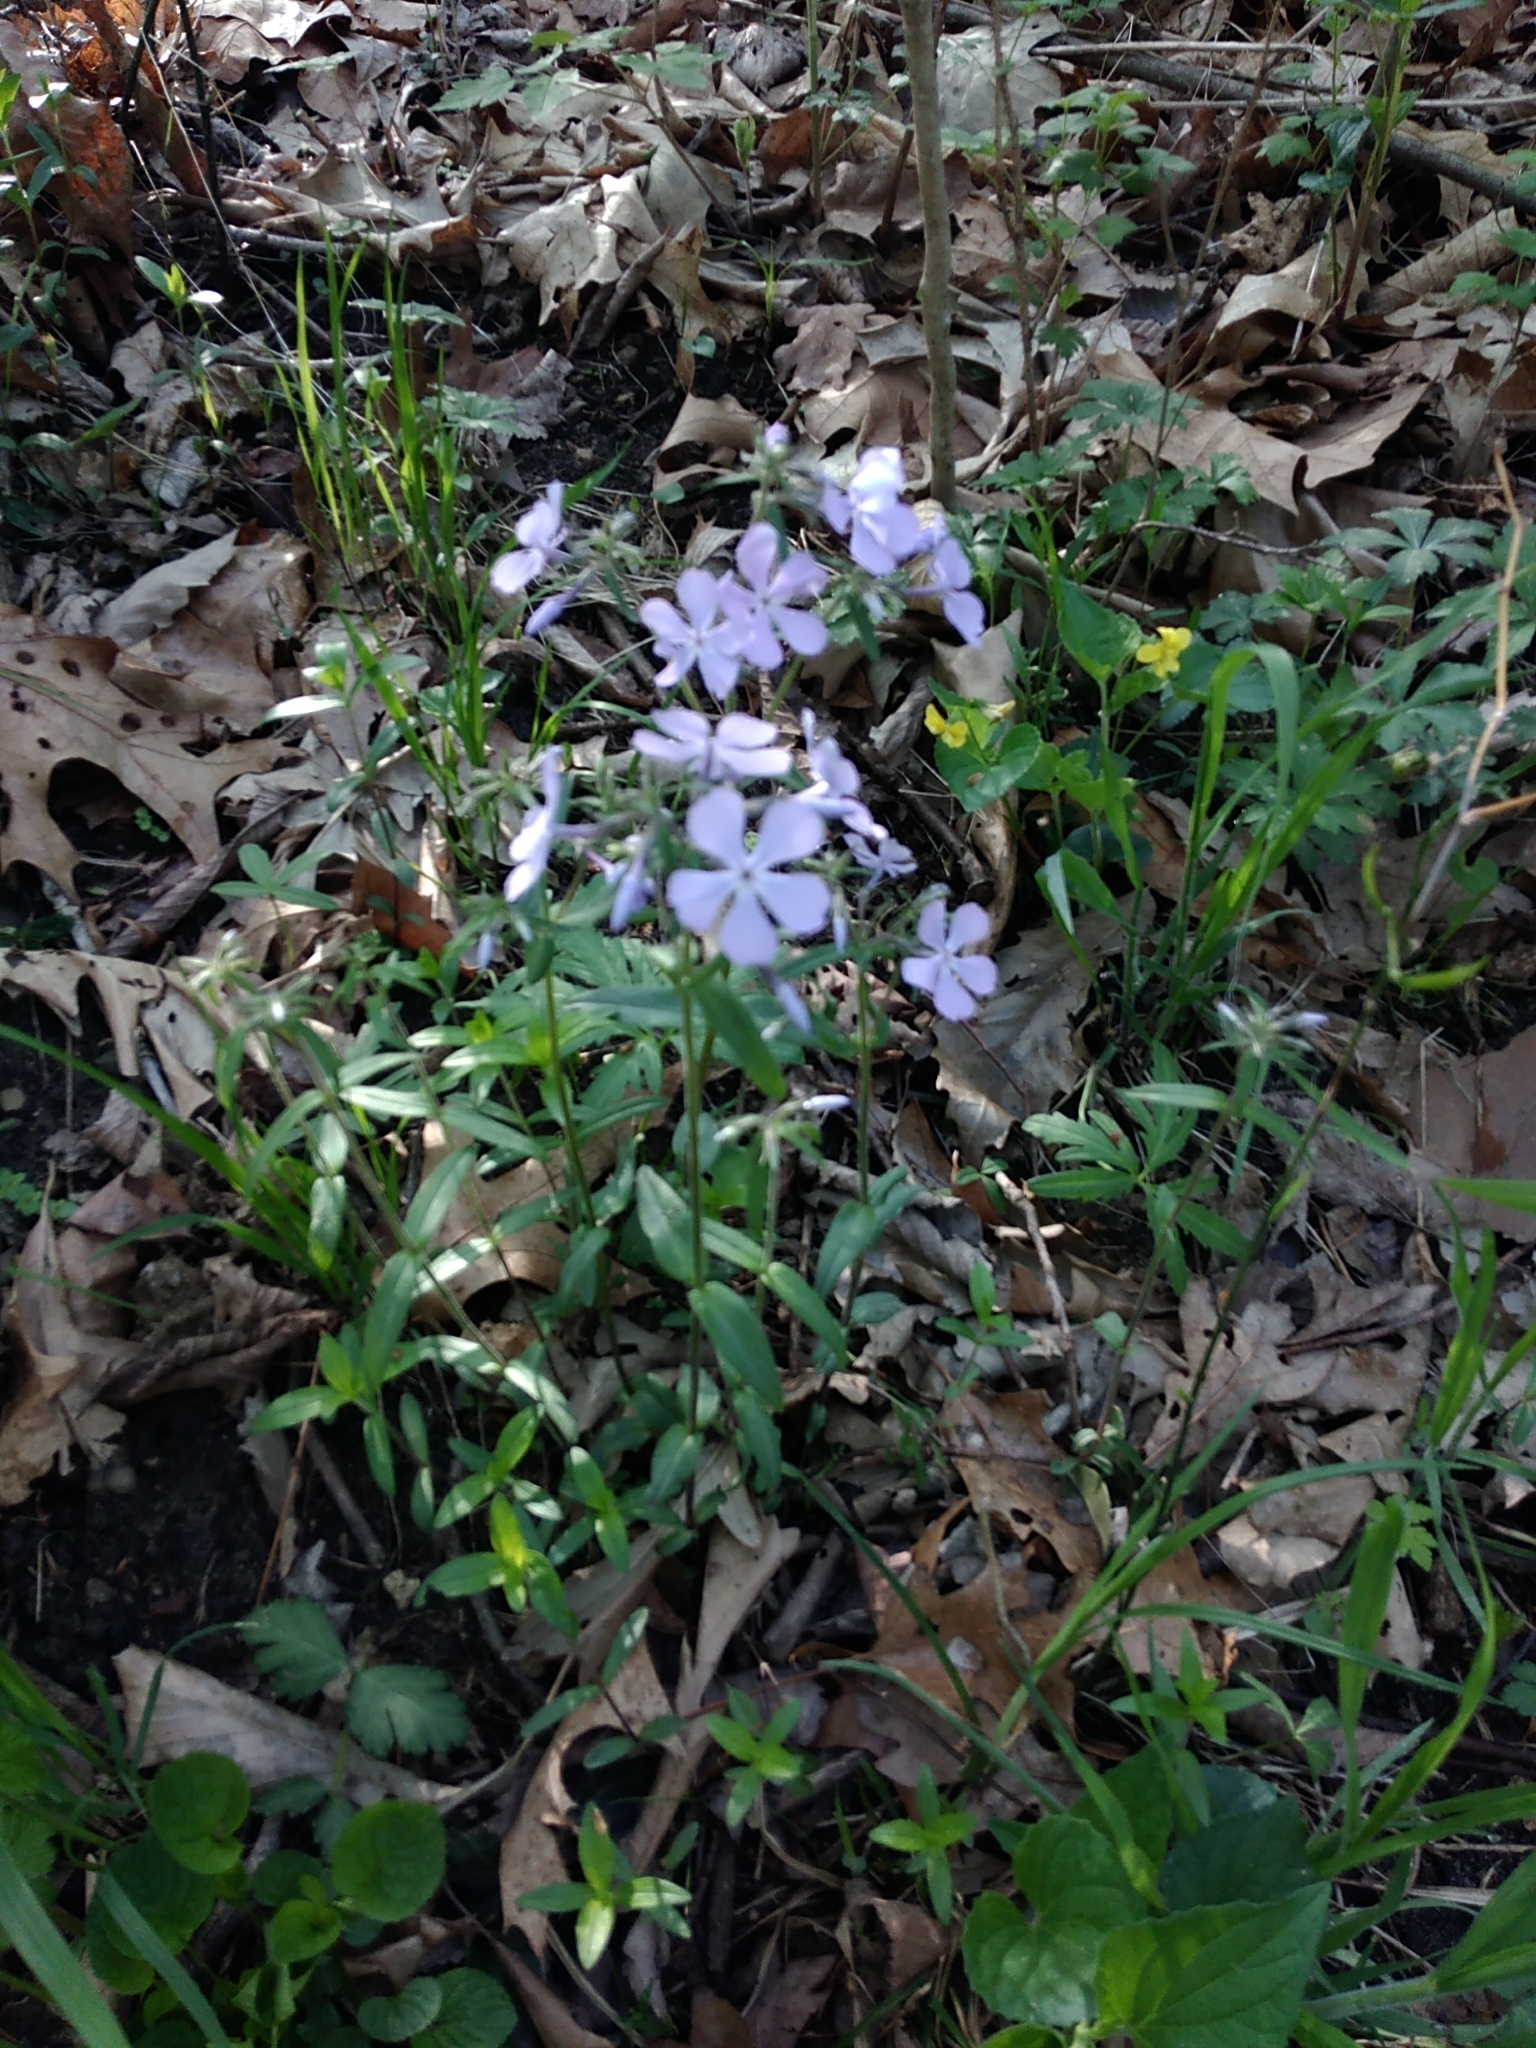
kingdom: Plantae
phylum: Tracheophyta
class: Magnoliopsida
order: Ericales
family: Polemoniaceae
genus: Phlox
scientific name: Phlox divaricata
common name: Blue phlox
